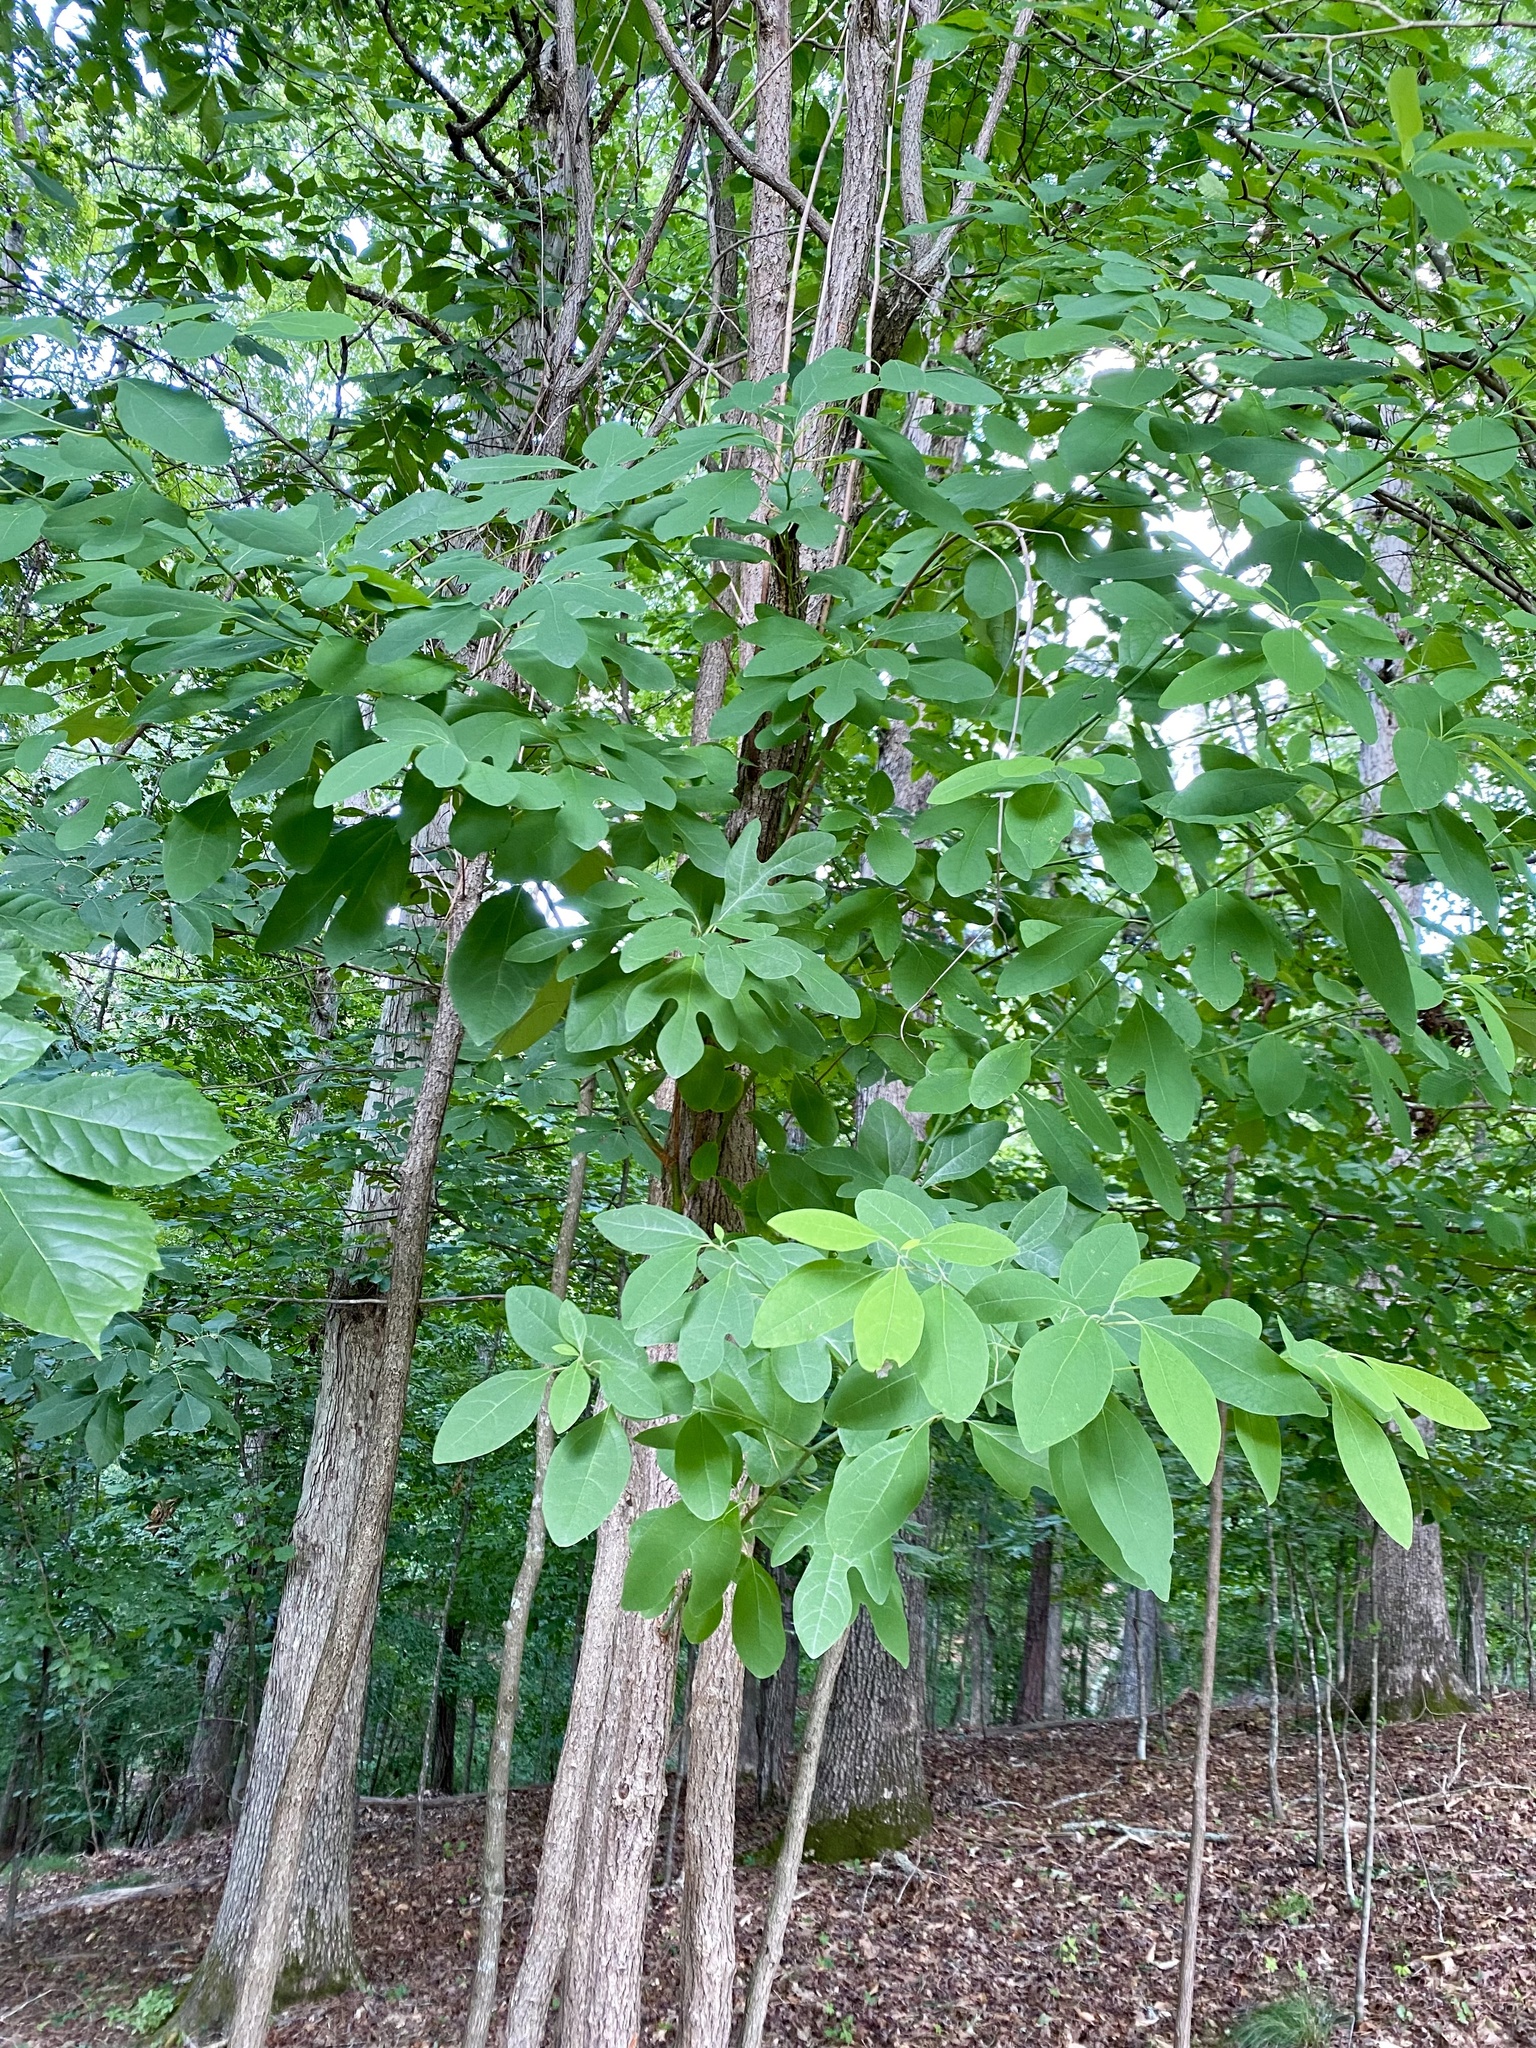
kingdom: Plantae
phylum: Tracheophyta
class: Magnoliopsida
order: Laurales
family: Lauraceae
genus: Sassafras
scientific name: Sassafras albidum
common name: Sassafras
